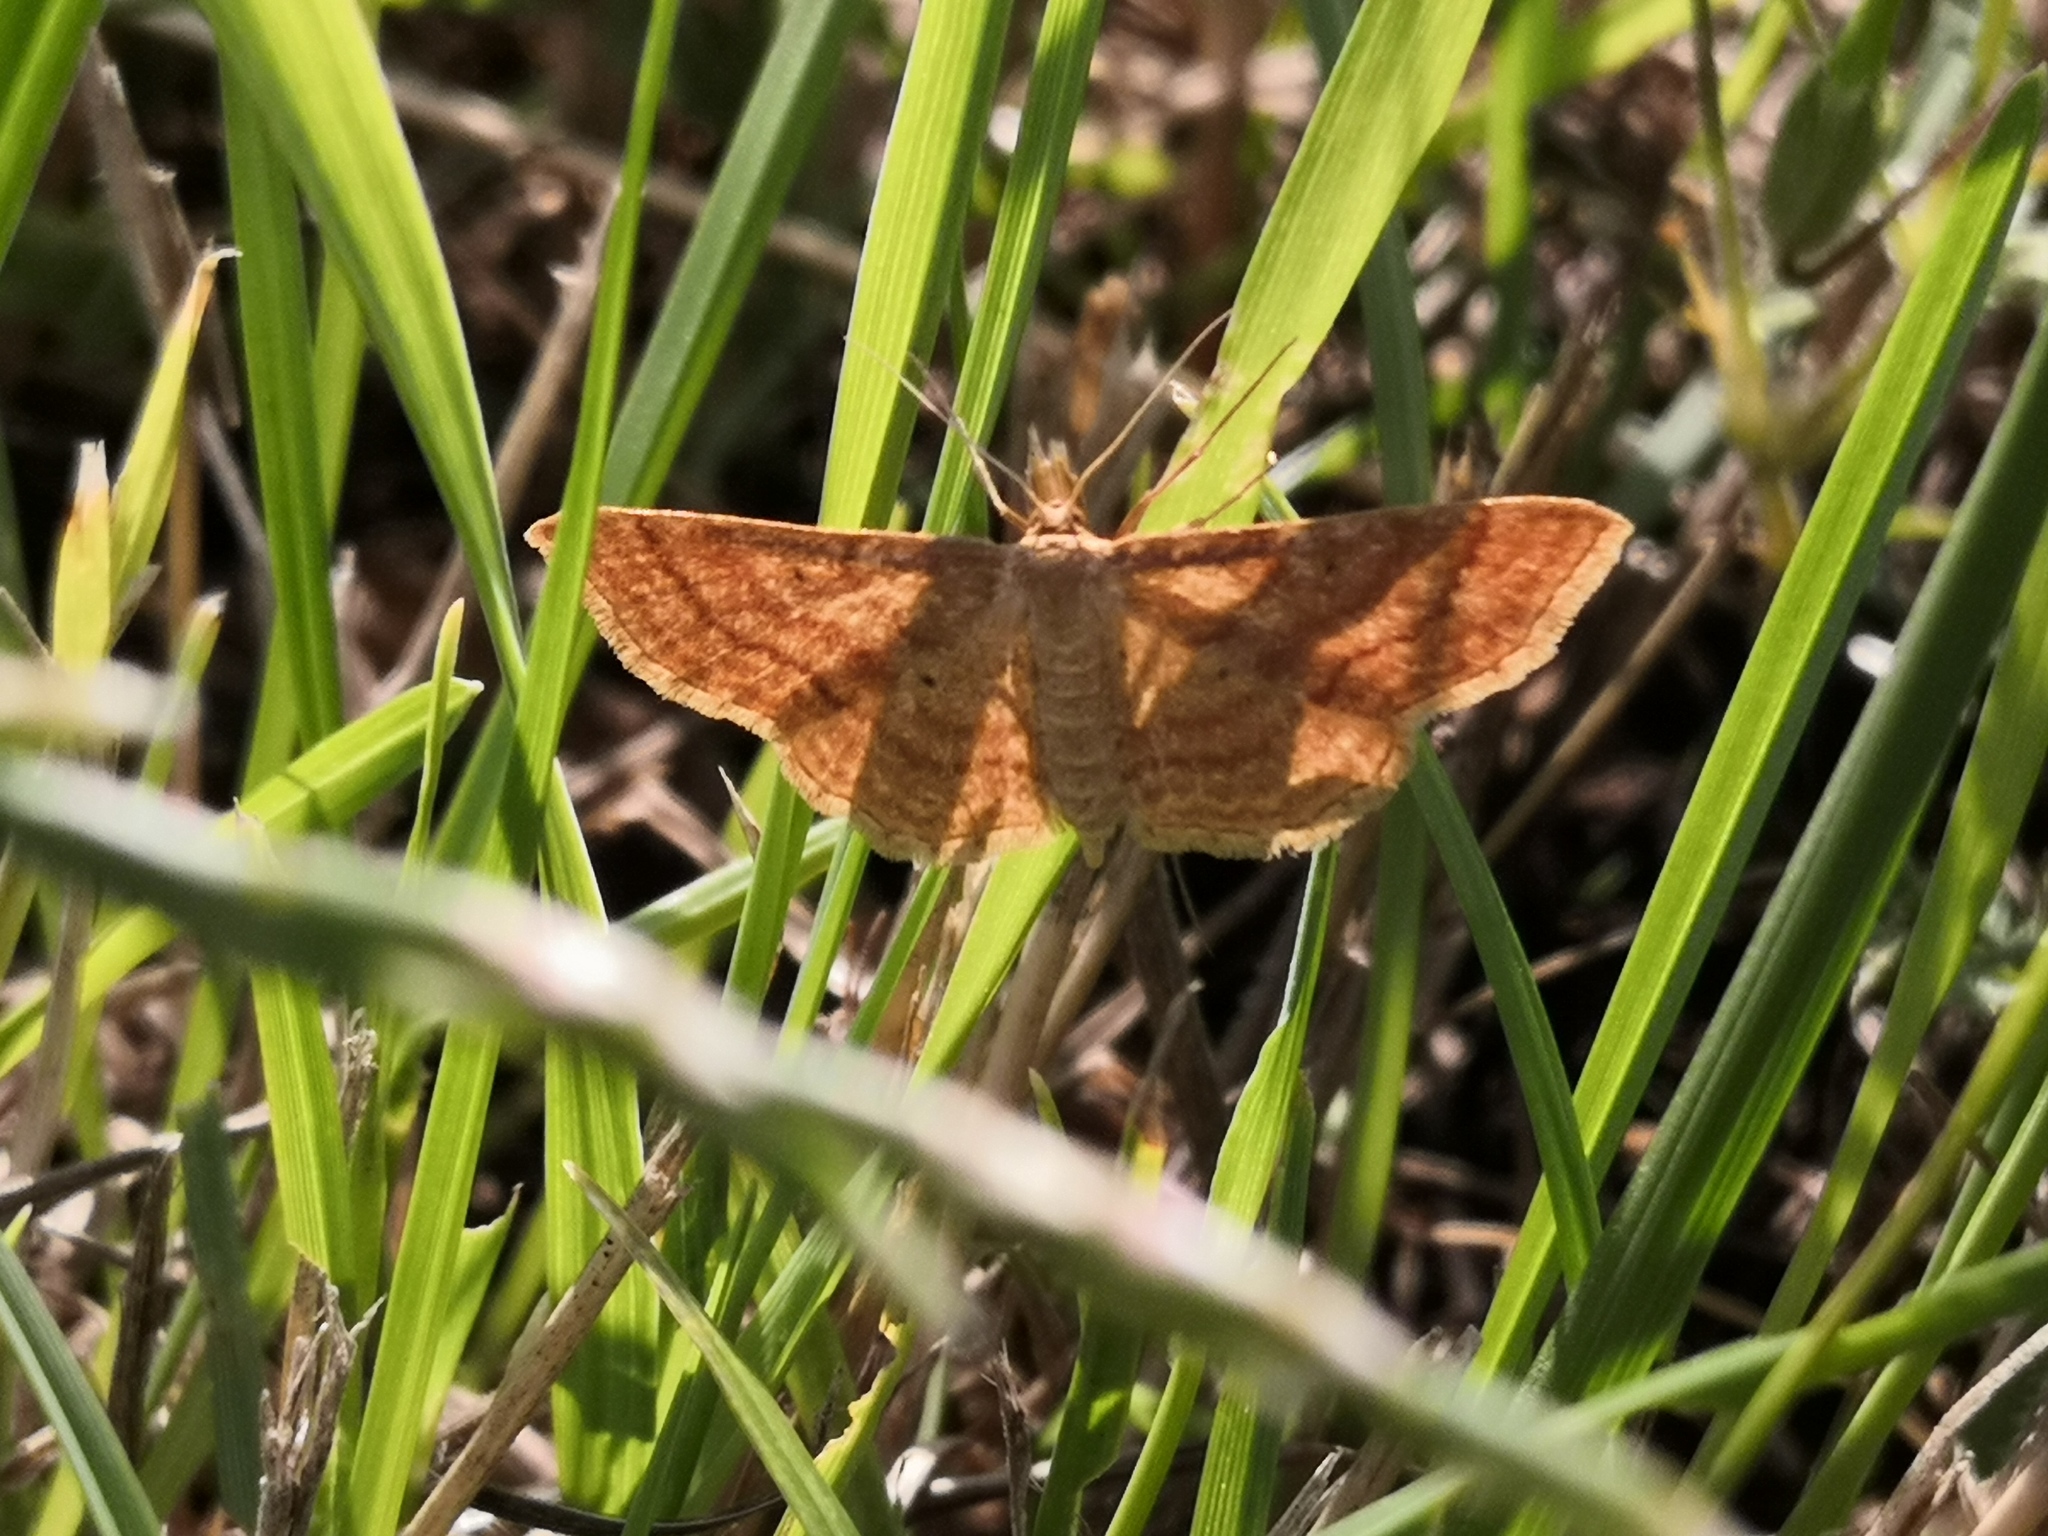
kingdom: Animalia
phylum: Arthropoda
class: Insecta
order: Lepidoptera
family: Geometridae
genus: Idaea
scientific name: Idaea ochrata
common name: Bright wave
